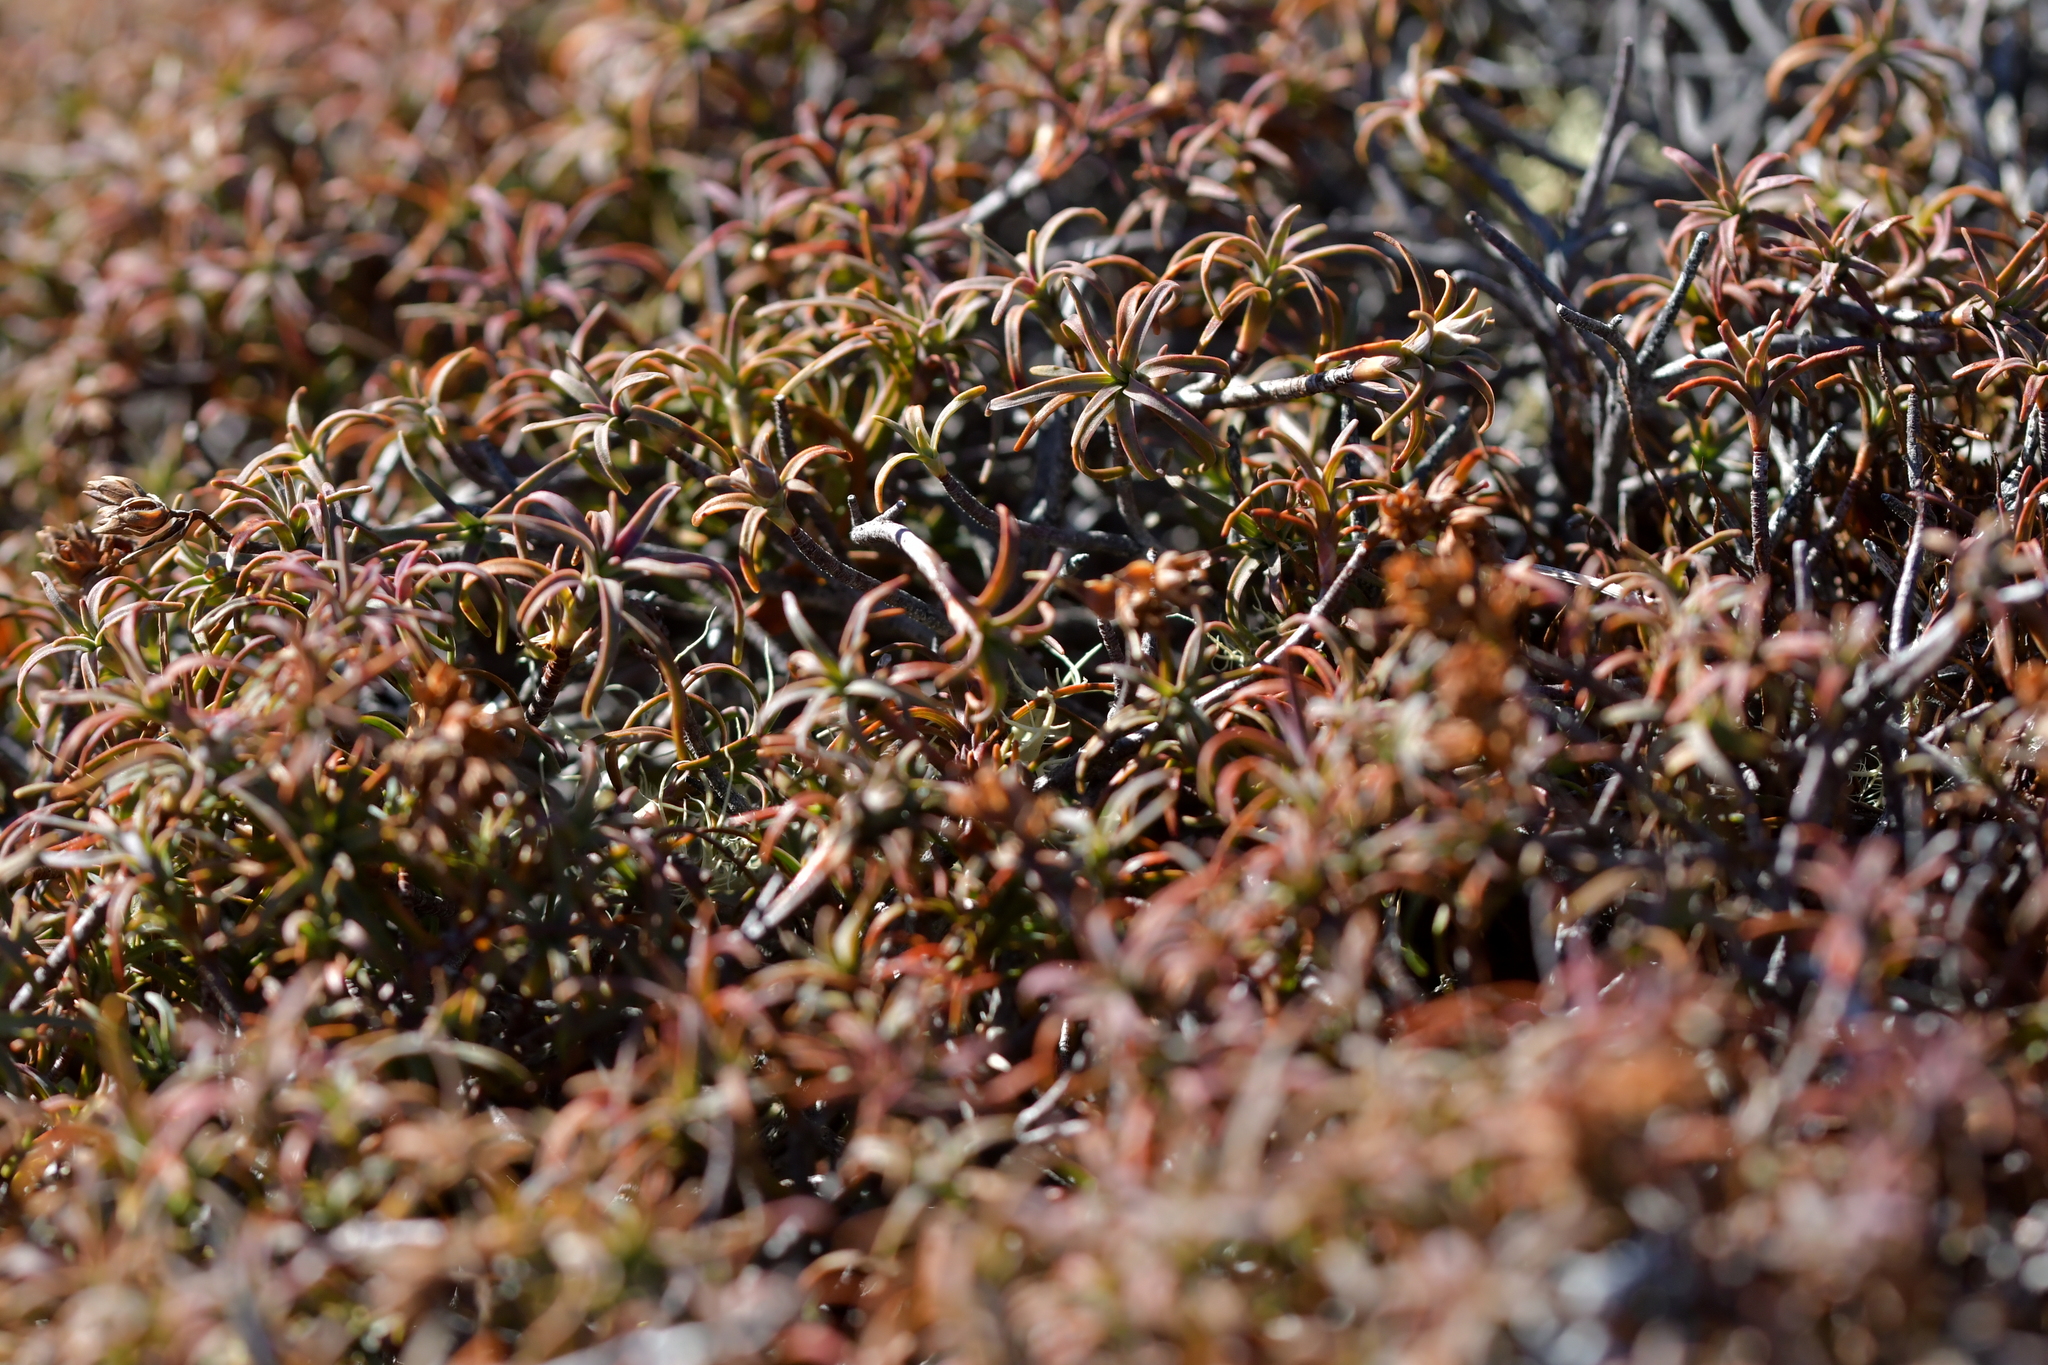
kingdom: Plantae
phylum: Tracheophyta
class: Magnoliopsida
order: Ericales
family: Ericaceae
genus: Dracophyllum
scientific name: Dracophyllum recurvum
